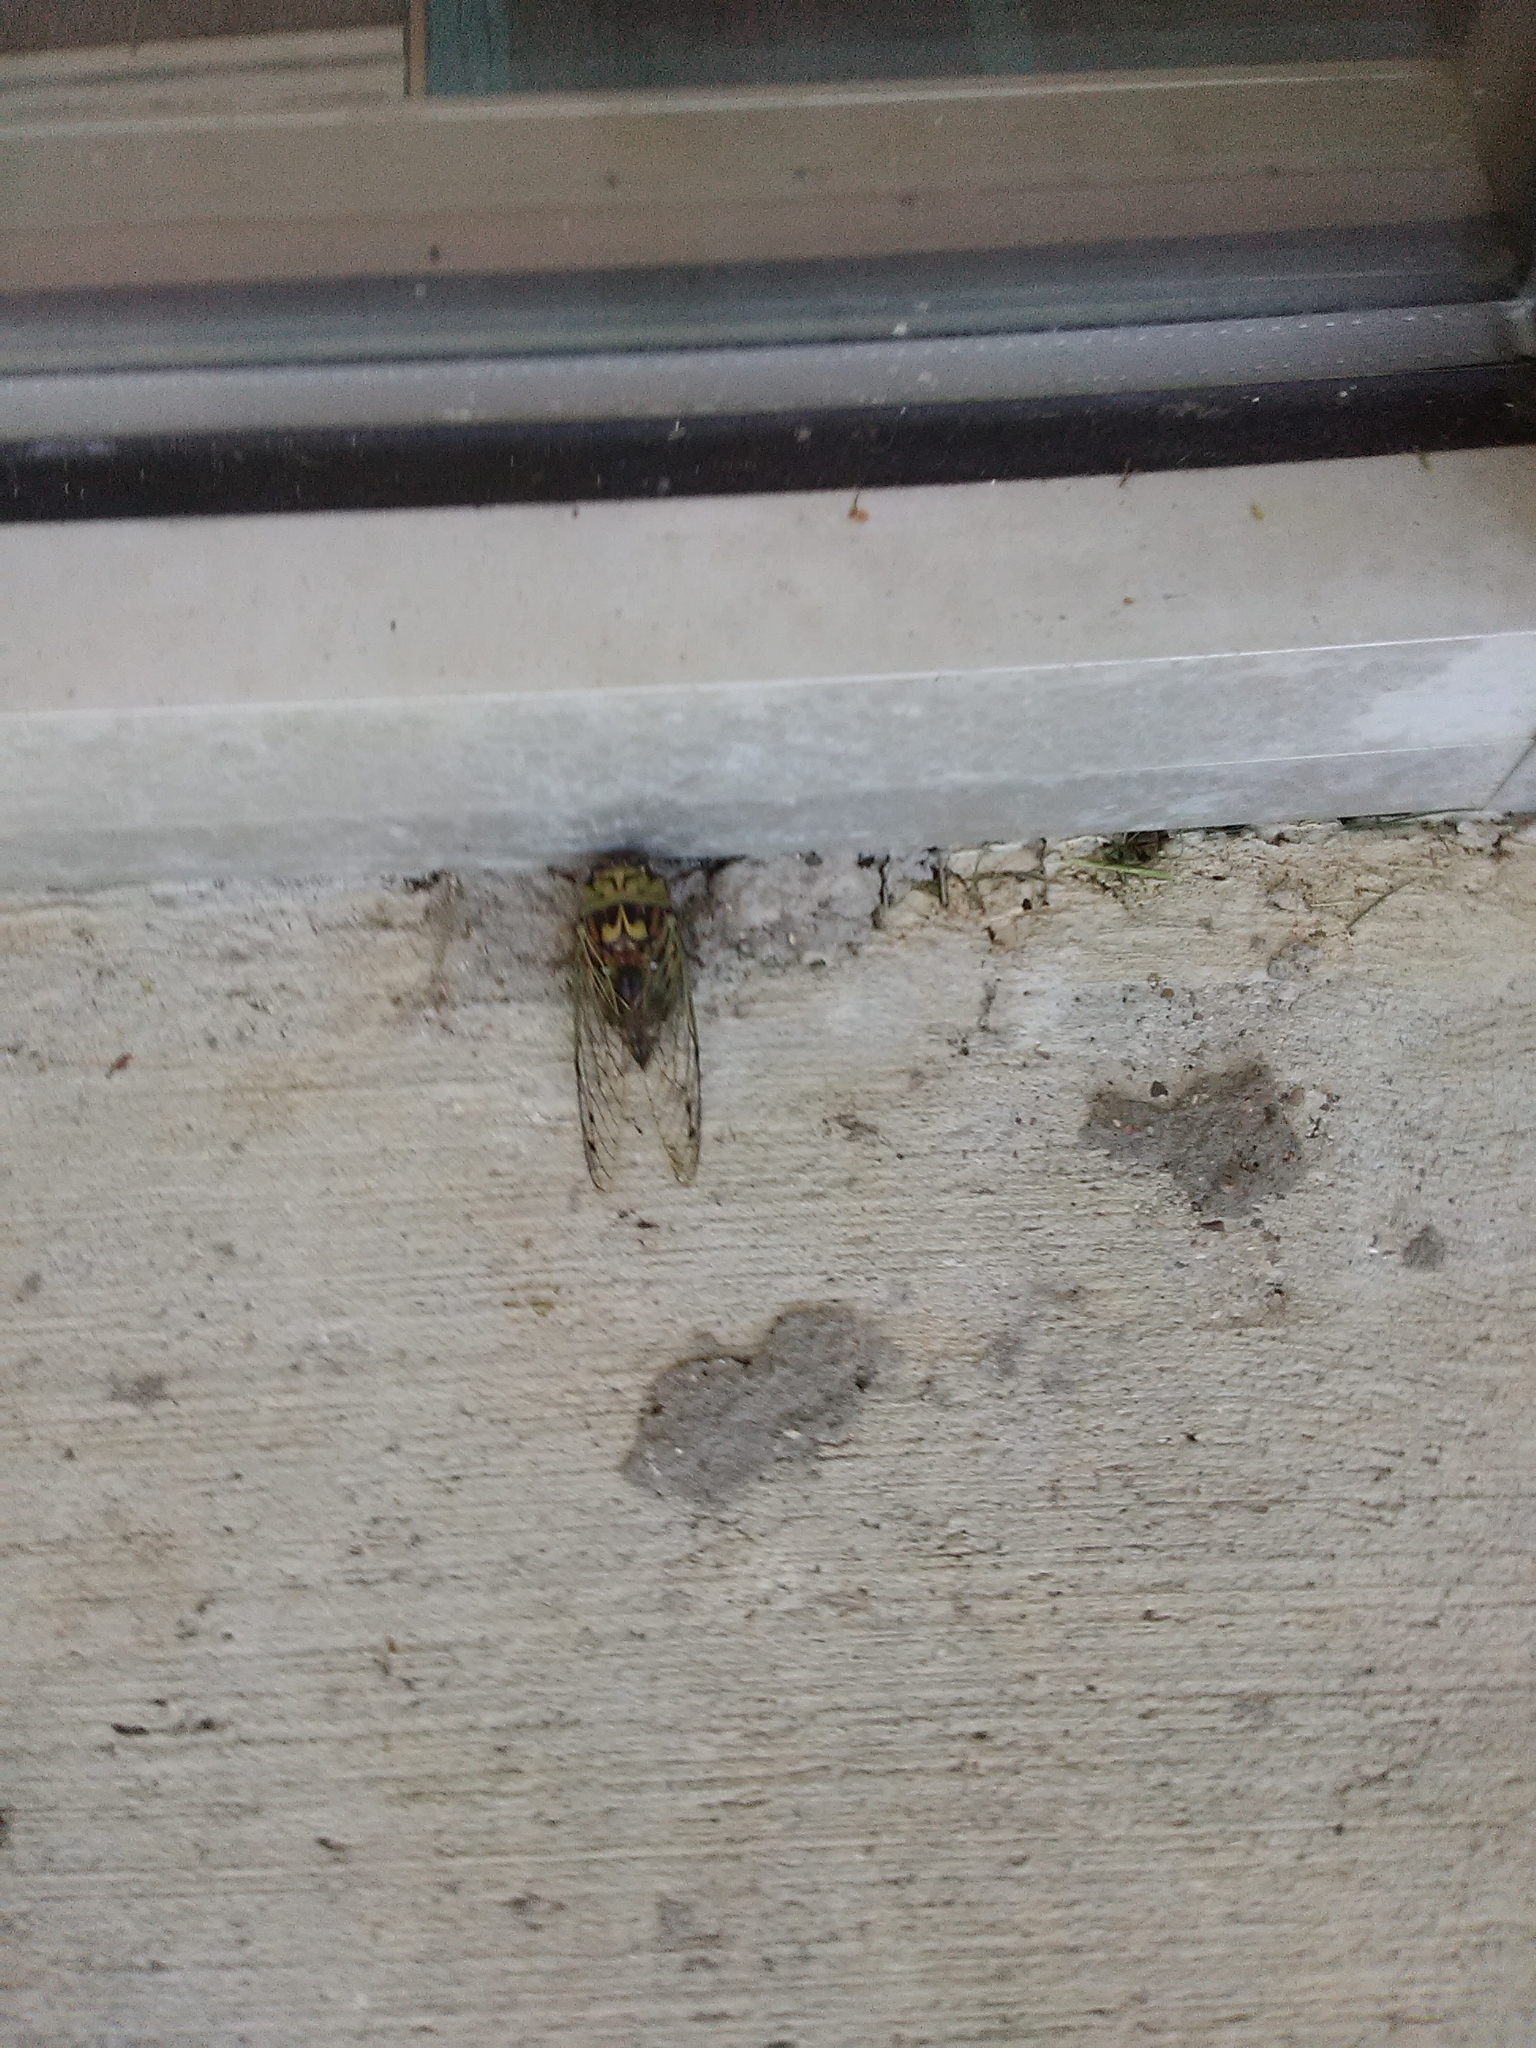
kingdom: Animalia
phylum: Arthropoda
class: Insecta
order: Hemiptera
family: Cicadidae
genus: Megatibicen
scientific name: Megatibicen resh
